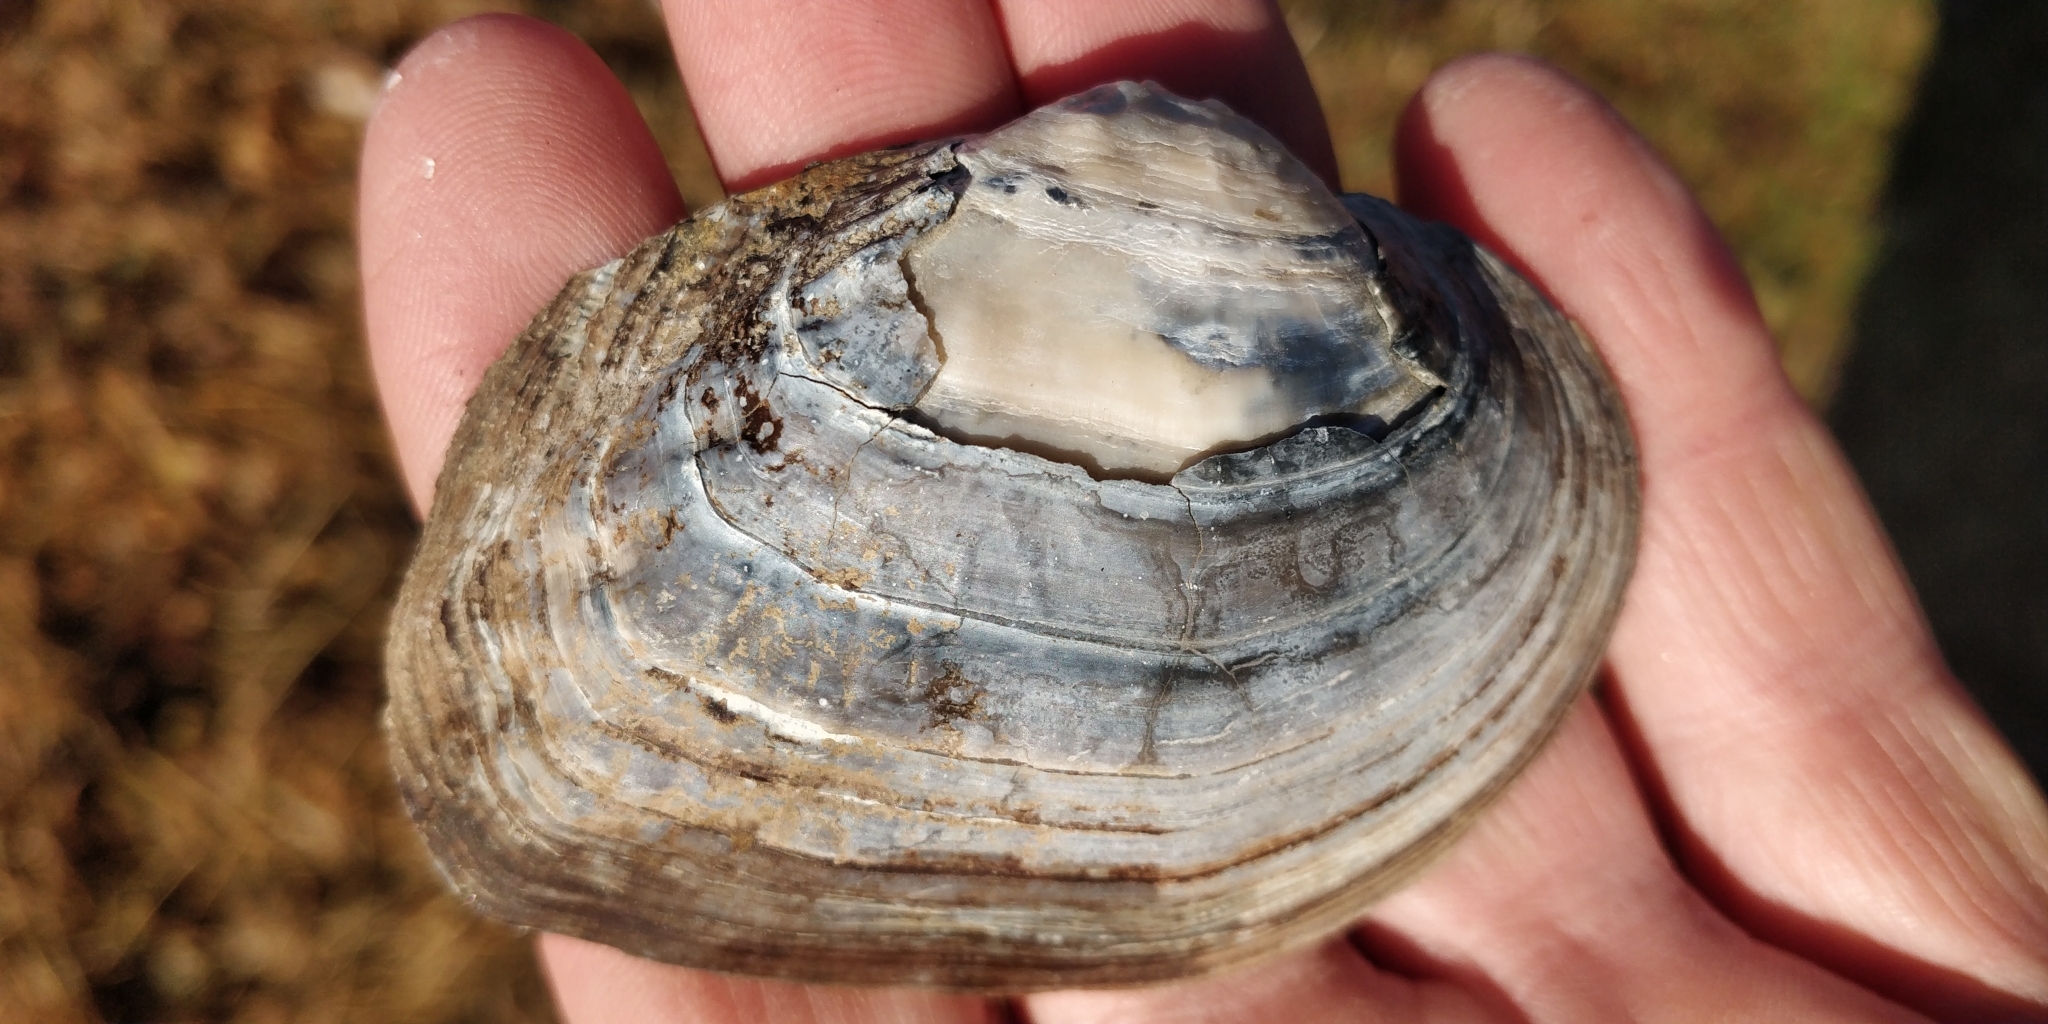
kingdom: Animalia
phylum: Mollusca
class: Bivalvia
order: Unionida
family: Unionidae
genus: Arcidens
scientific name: Arcidens confragosus
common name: Rock pocketbook
